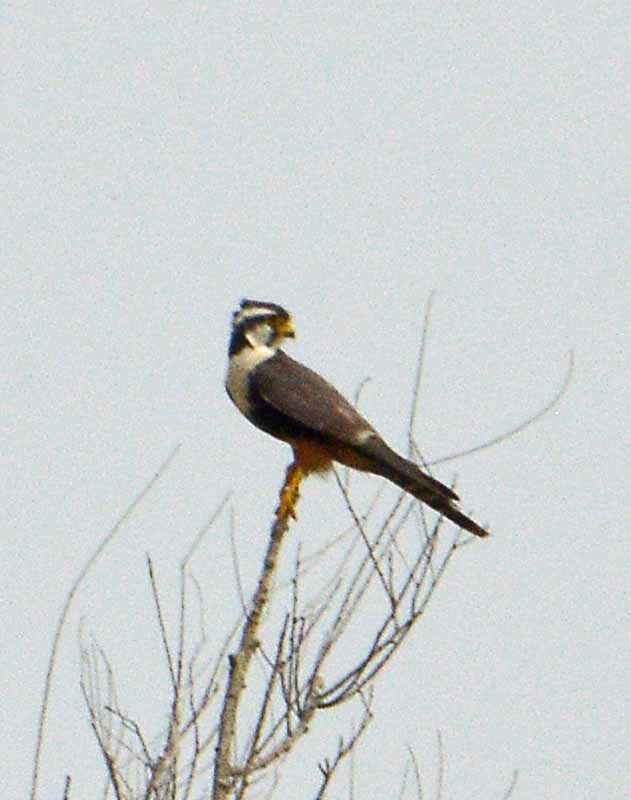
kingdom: Animalia
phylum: Chordata
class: Aves
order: Falconiformes
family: Falconidae
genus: Falco
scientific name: Falco femoralis
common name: Aplomado falcon
